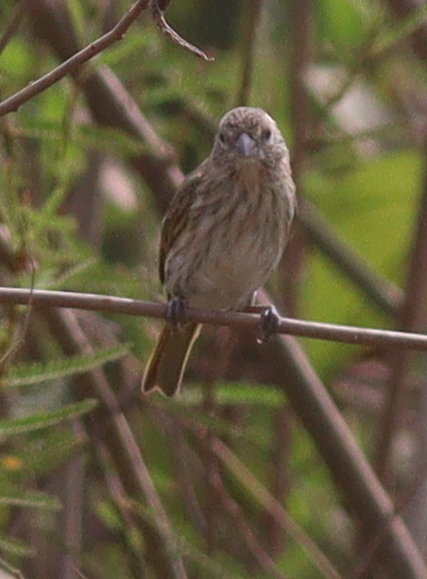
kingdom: Animalia
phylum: Chordata
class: Aves
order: Passeriformes
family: Thraupidae
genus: Sicalis
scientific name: Sicalis flaveola
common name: Saffron finch
